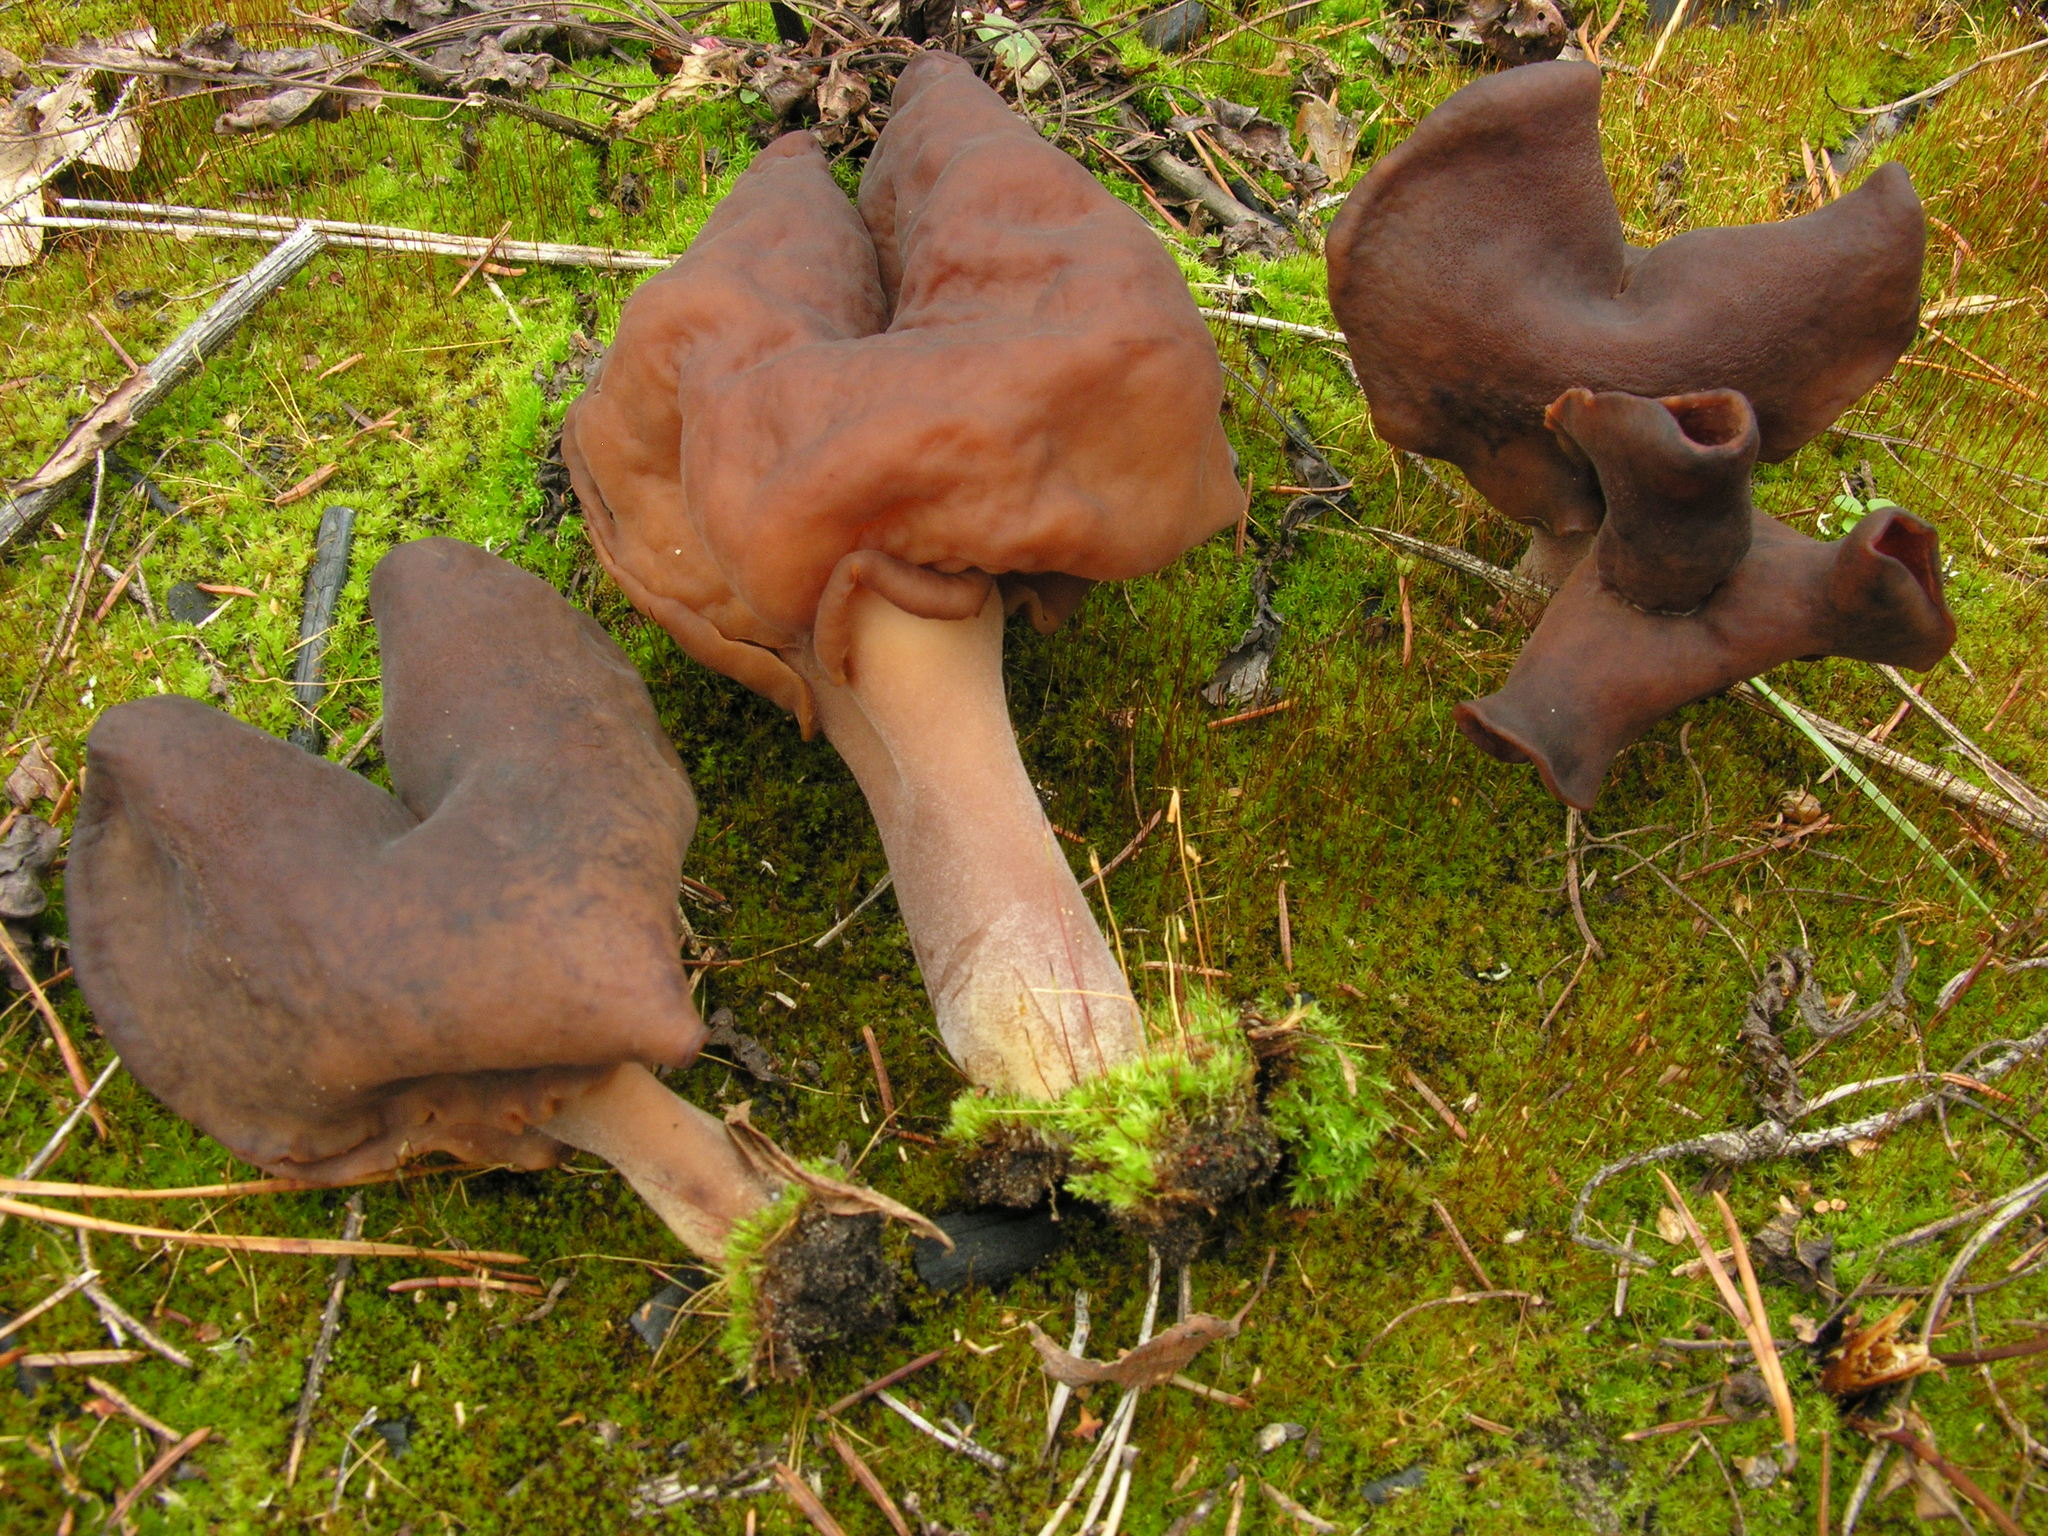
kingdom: Fungi
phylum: Ascomycota
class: Pezizomycetes
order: Pezizales
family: Discinaceae
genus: Gyromitra
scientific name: Gyromitra infula
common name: Pouched false morel
